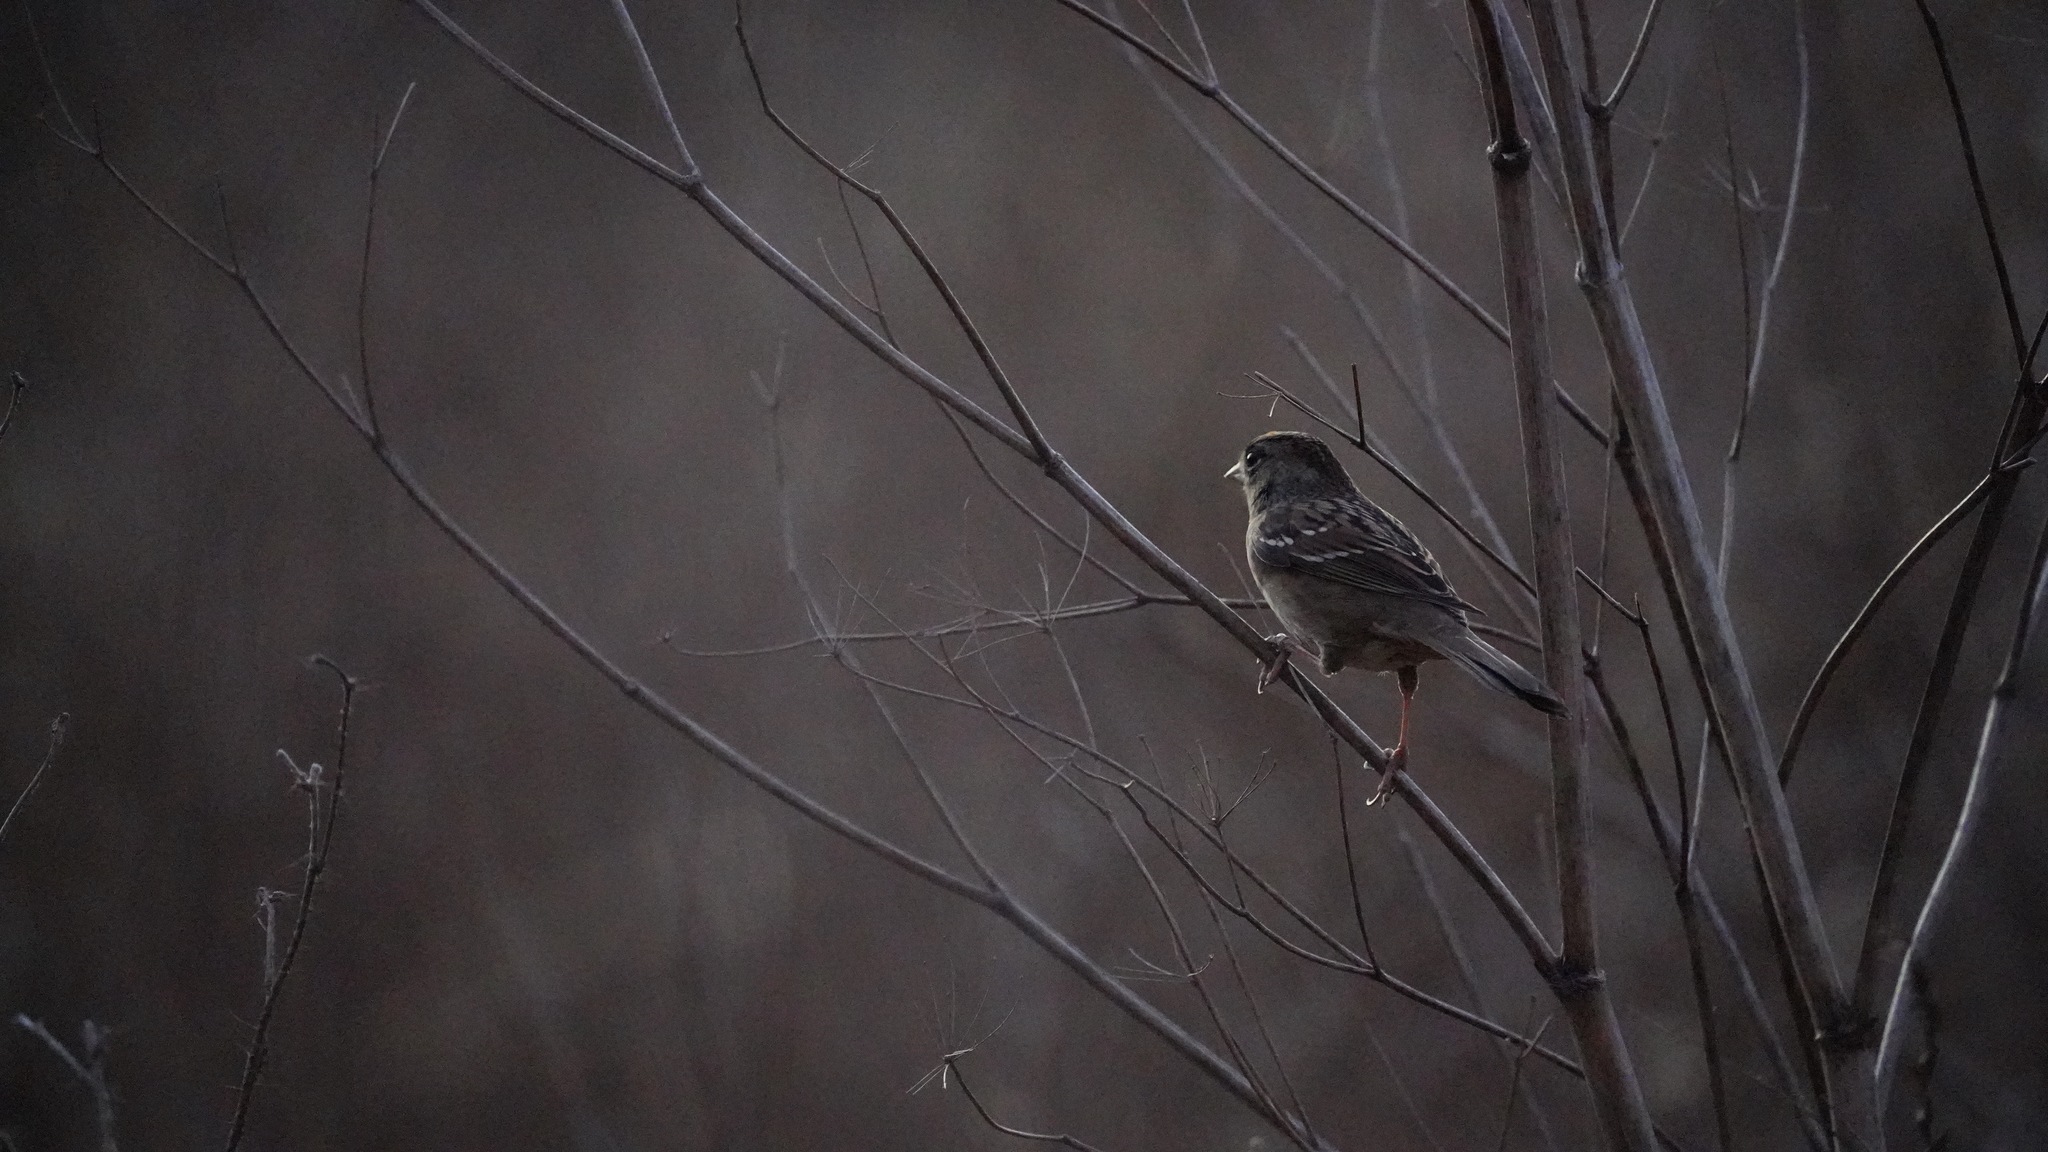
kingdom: Animalia
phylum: Chordata
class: Aves
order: Passeriformes
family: Passerellidae
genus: Zonotrichia
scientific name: Zonotrichia atricapilla
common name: Golden-crowned sparrow
